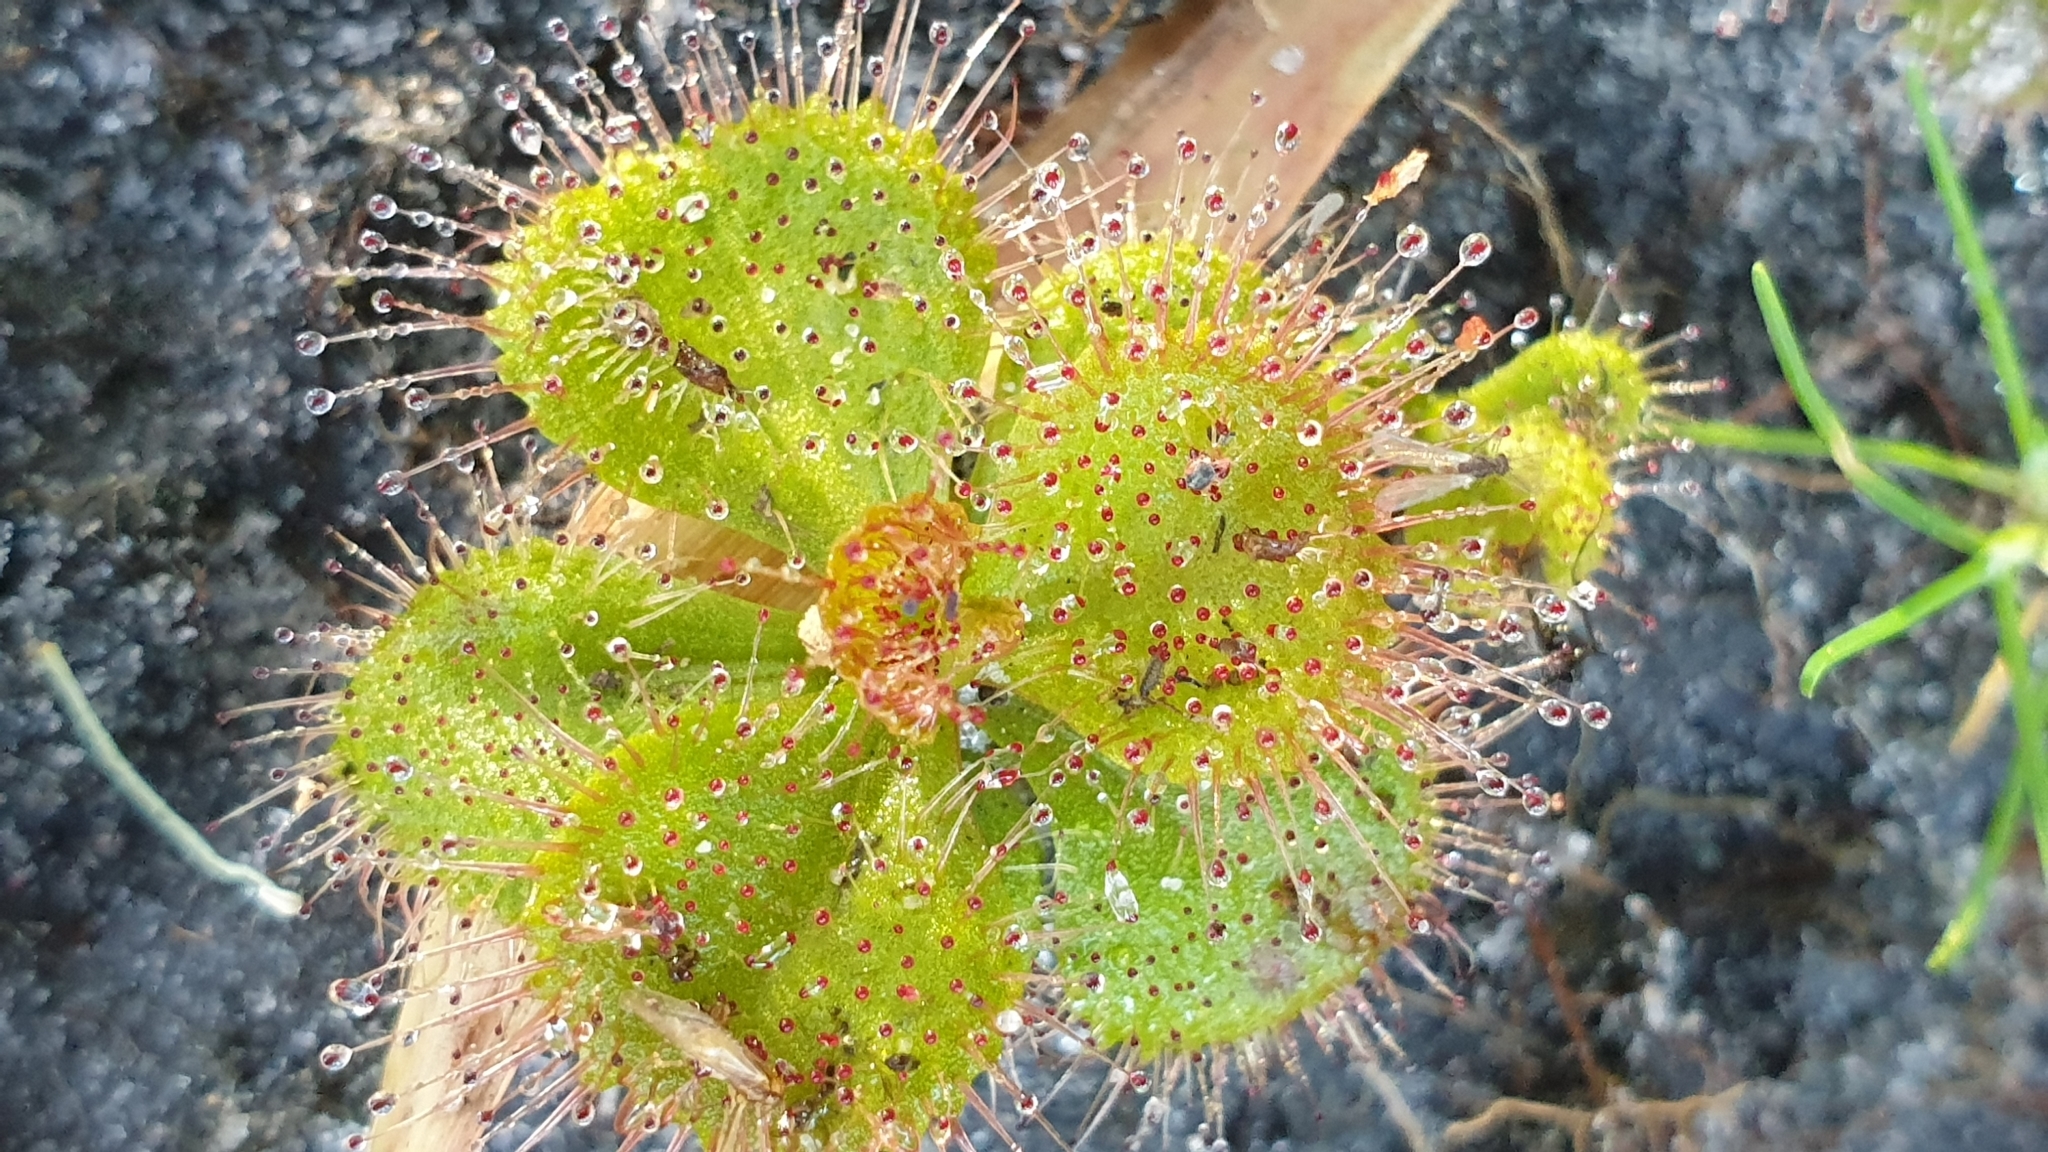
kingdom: Plantae
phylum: Tracheophyta
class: Magnoliopsida
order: Caryophyllales
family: Droseraceae
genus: Drosera
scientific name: Drosera aberrans
